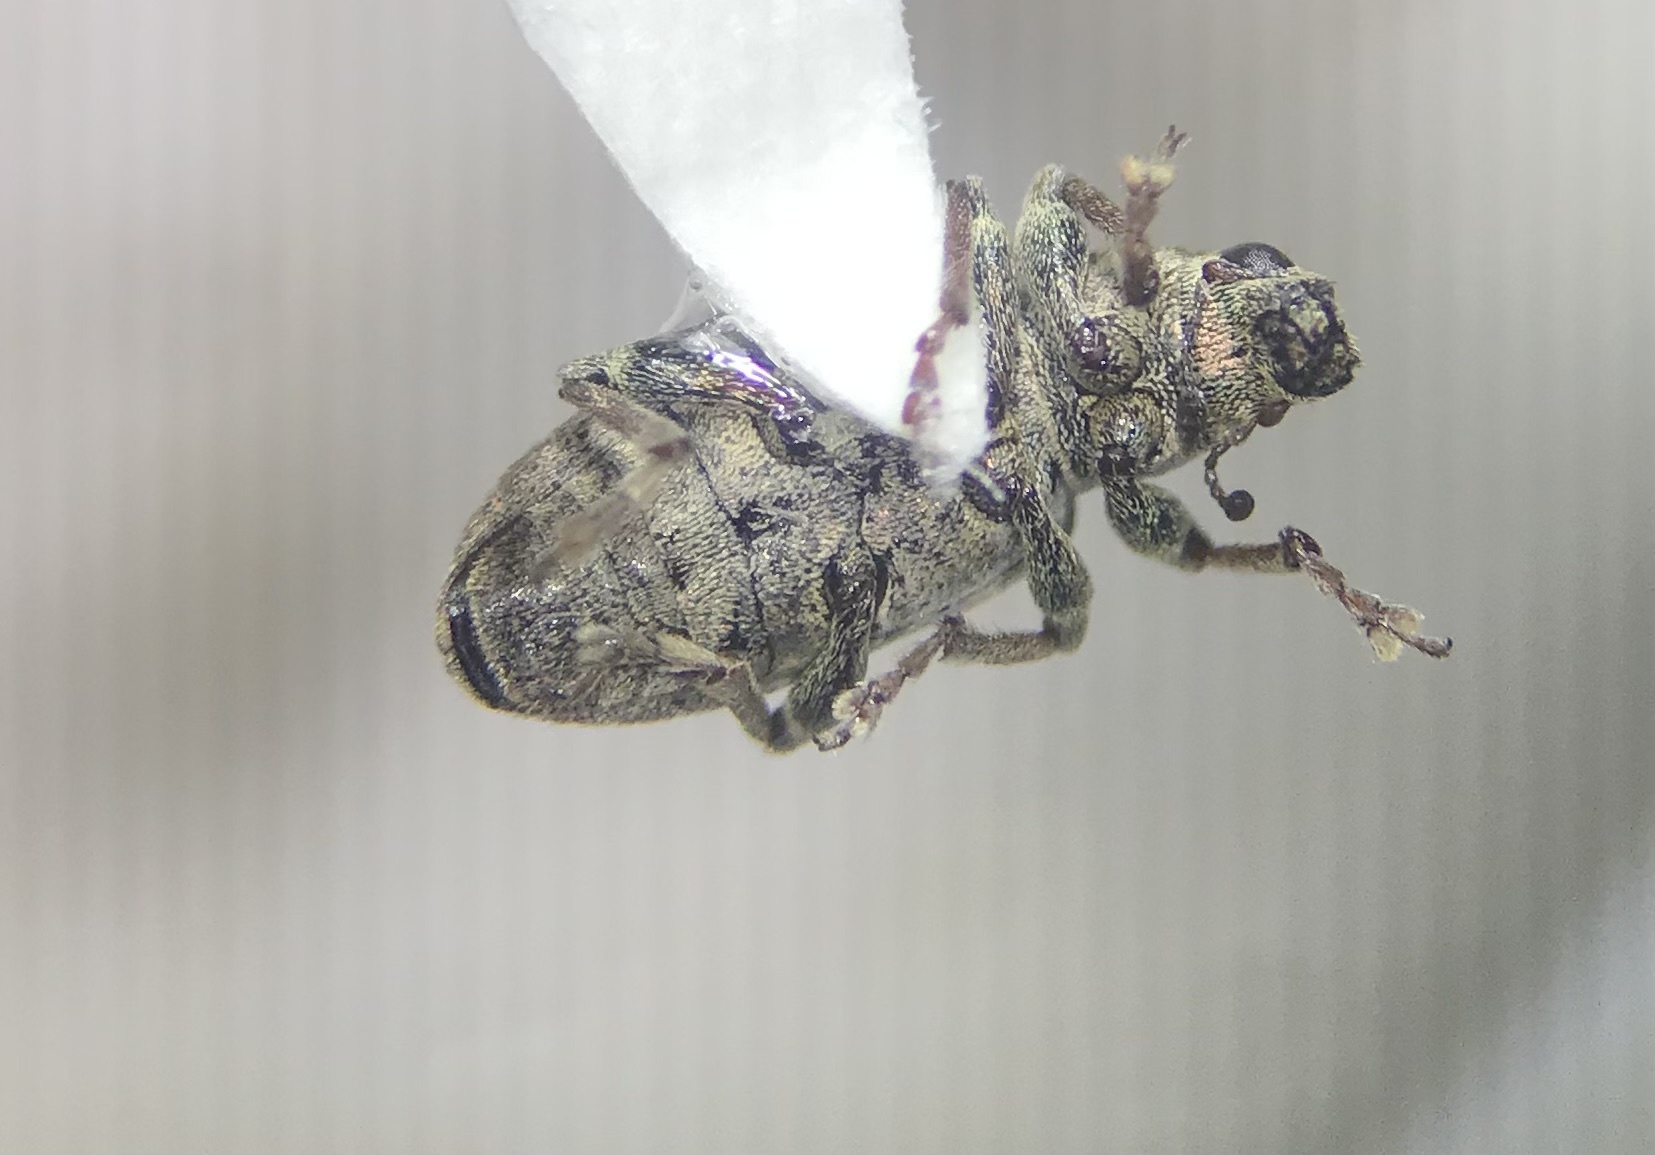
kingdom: Animalia
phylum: Arthropoda
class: Insecta
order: Coleoptera
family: Curculionidae
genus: Sitona
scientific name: Sitona cylindricollis
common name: Weevil
